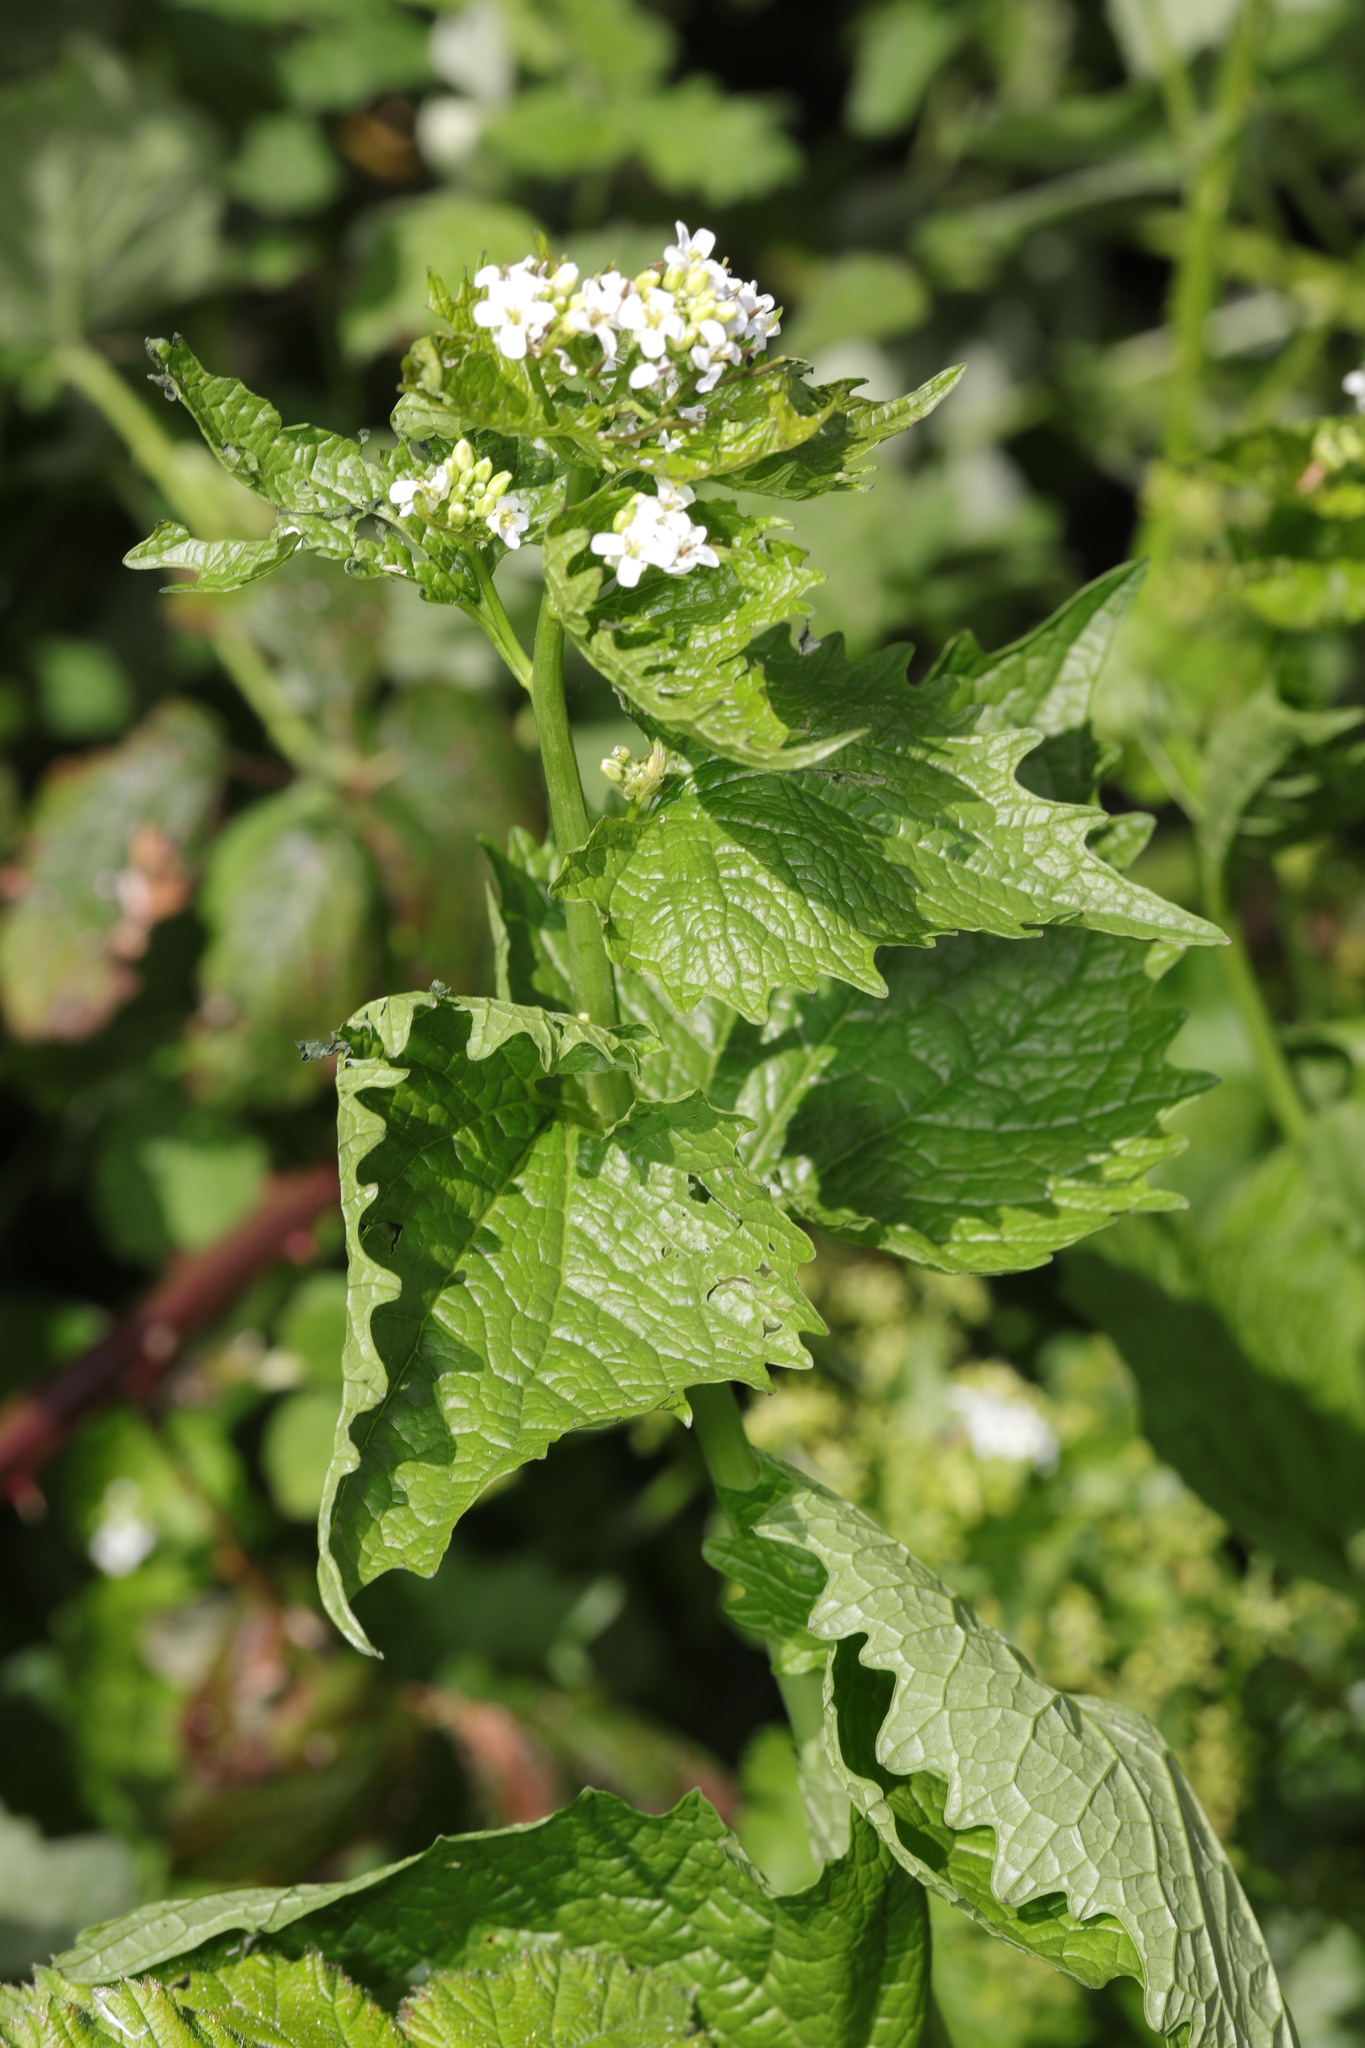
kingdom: Plantae
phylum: Tracheophyta
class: Magnoliopsida
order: Brassicales
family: Brassicaceae
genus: Alliaria
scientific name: Alliaria petiolata
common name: Garlic mustard
